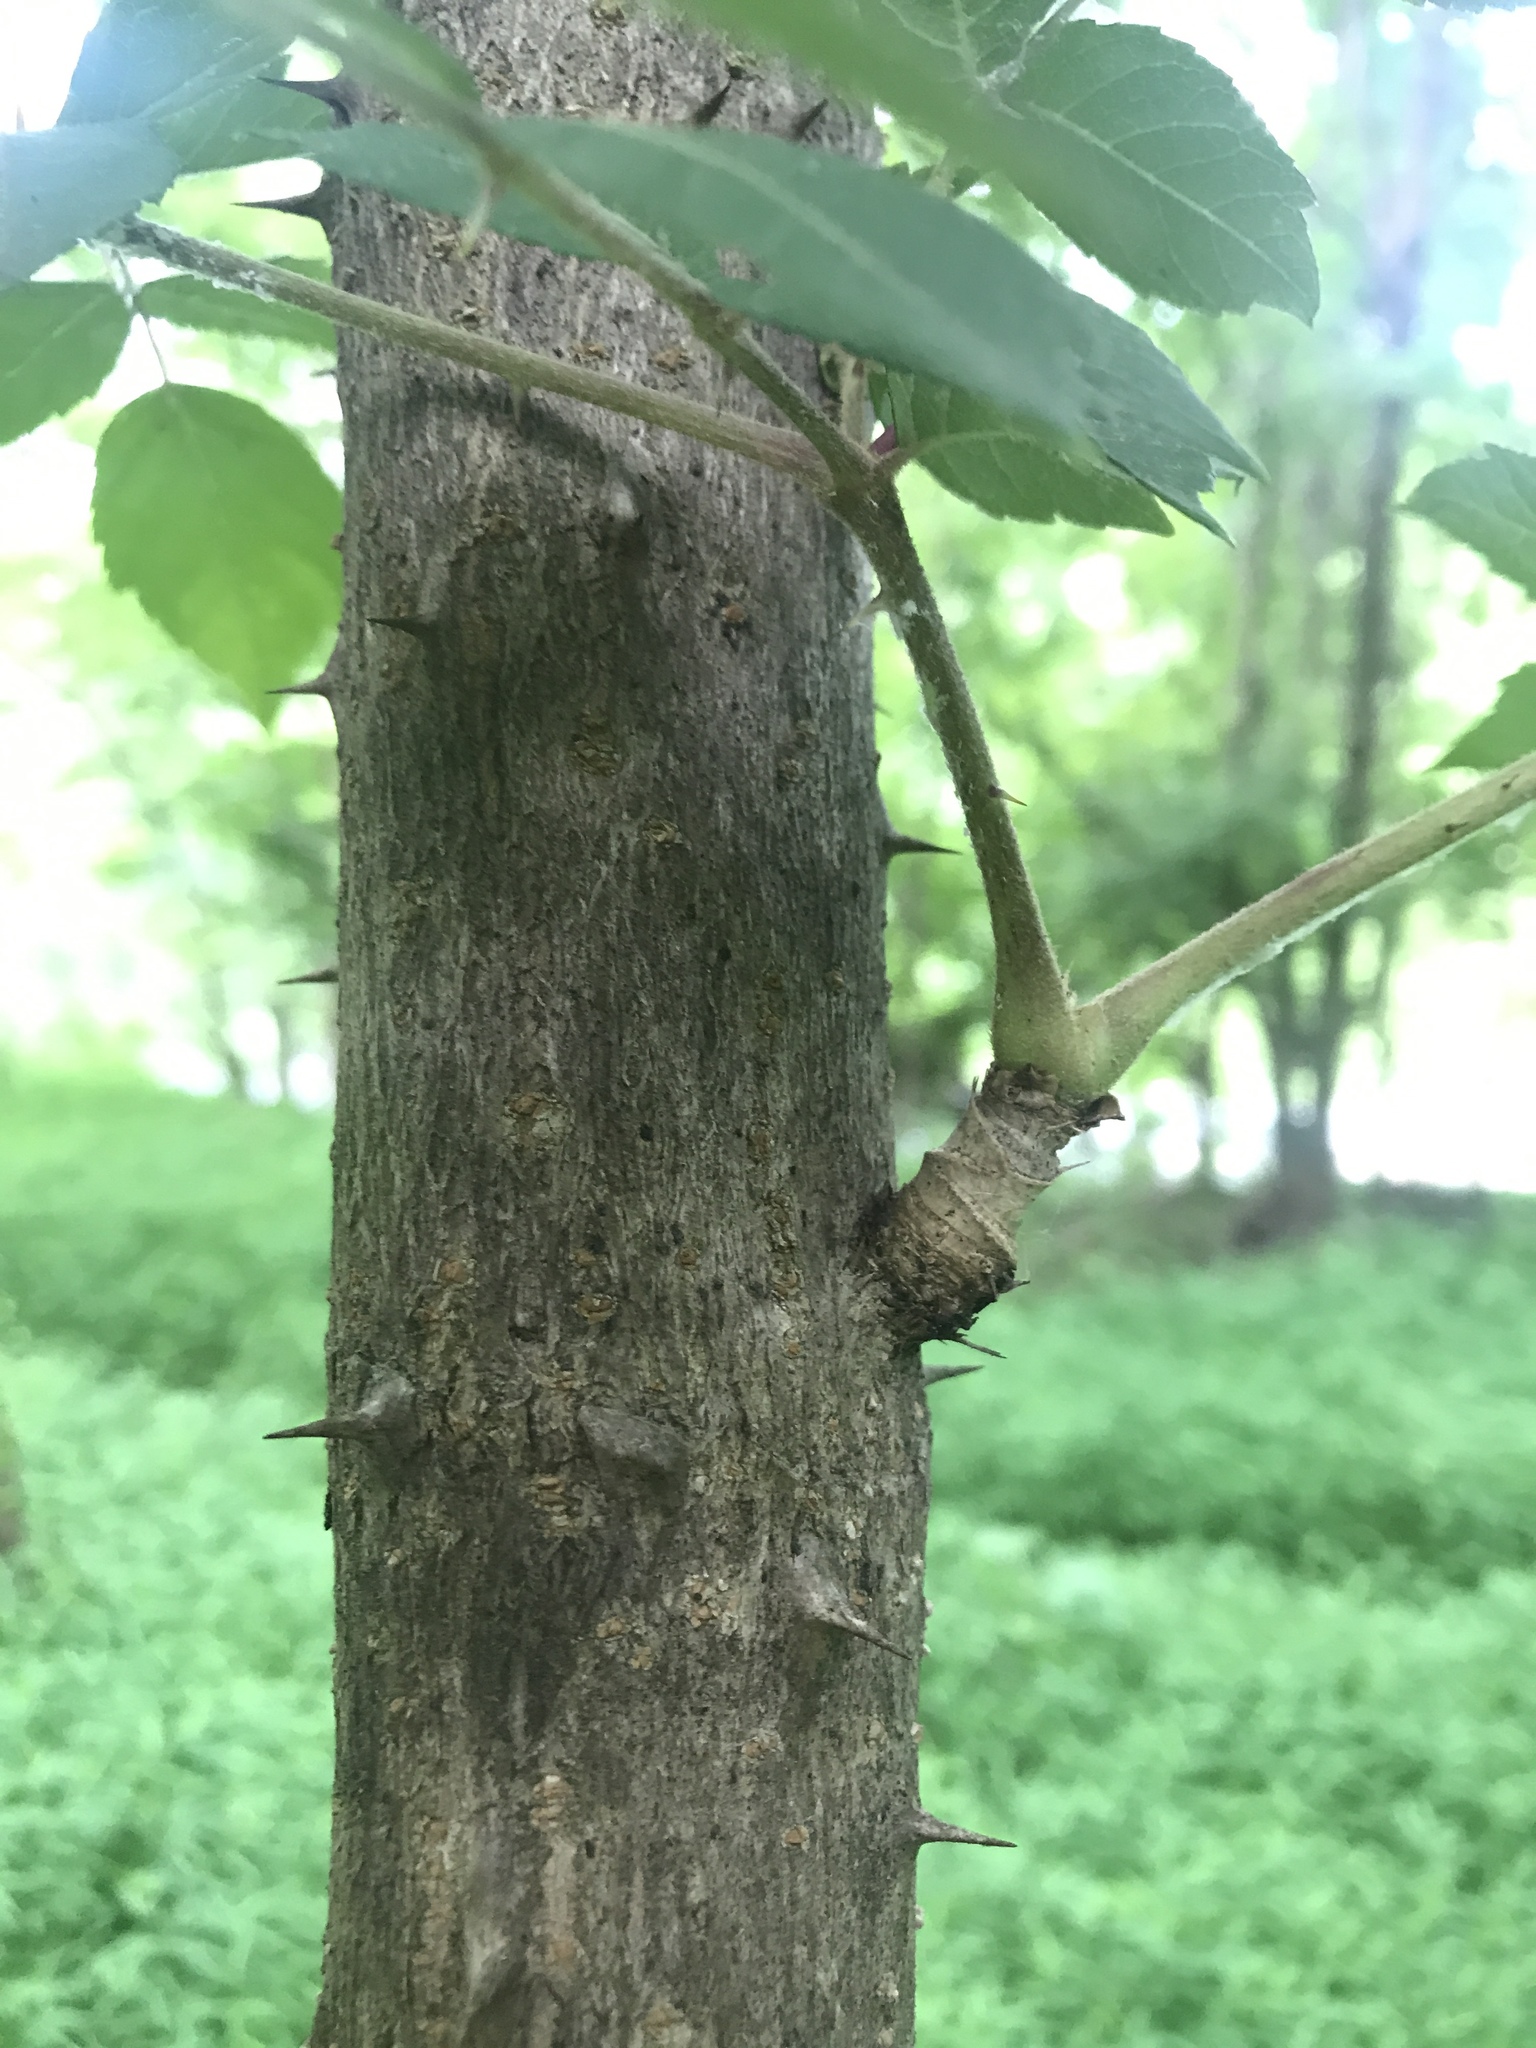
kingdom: Plantae
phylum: Tracheophyta
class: Magnoliopsida
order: Apiales
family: Araliaceae
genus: Aralia
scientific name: Aralia elata
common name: Japanese angelica-tree
